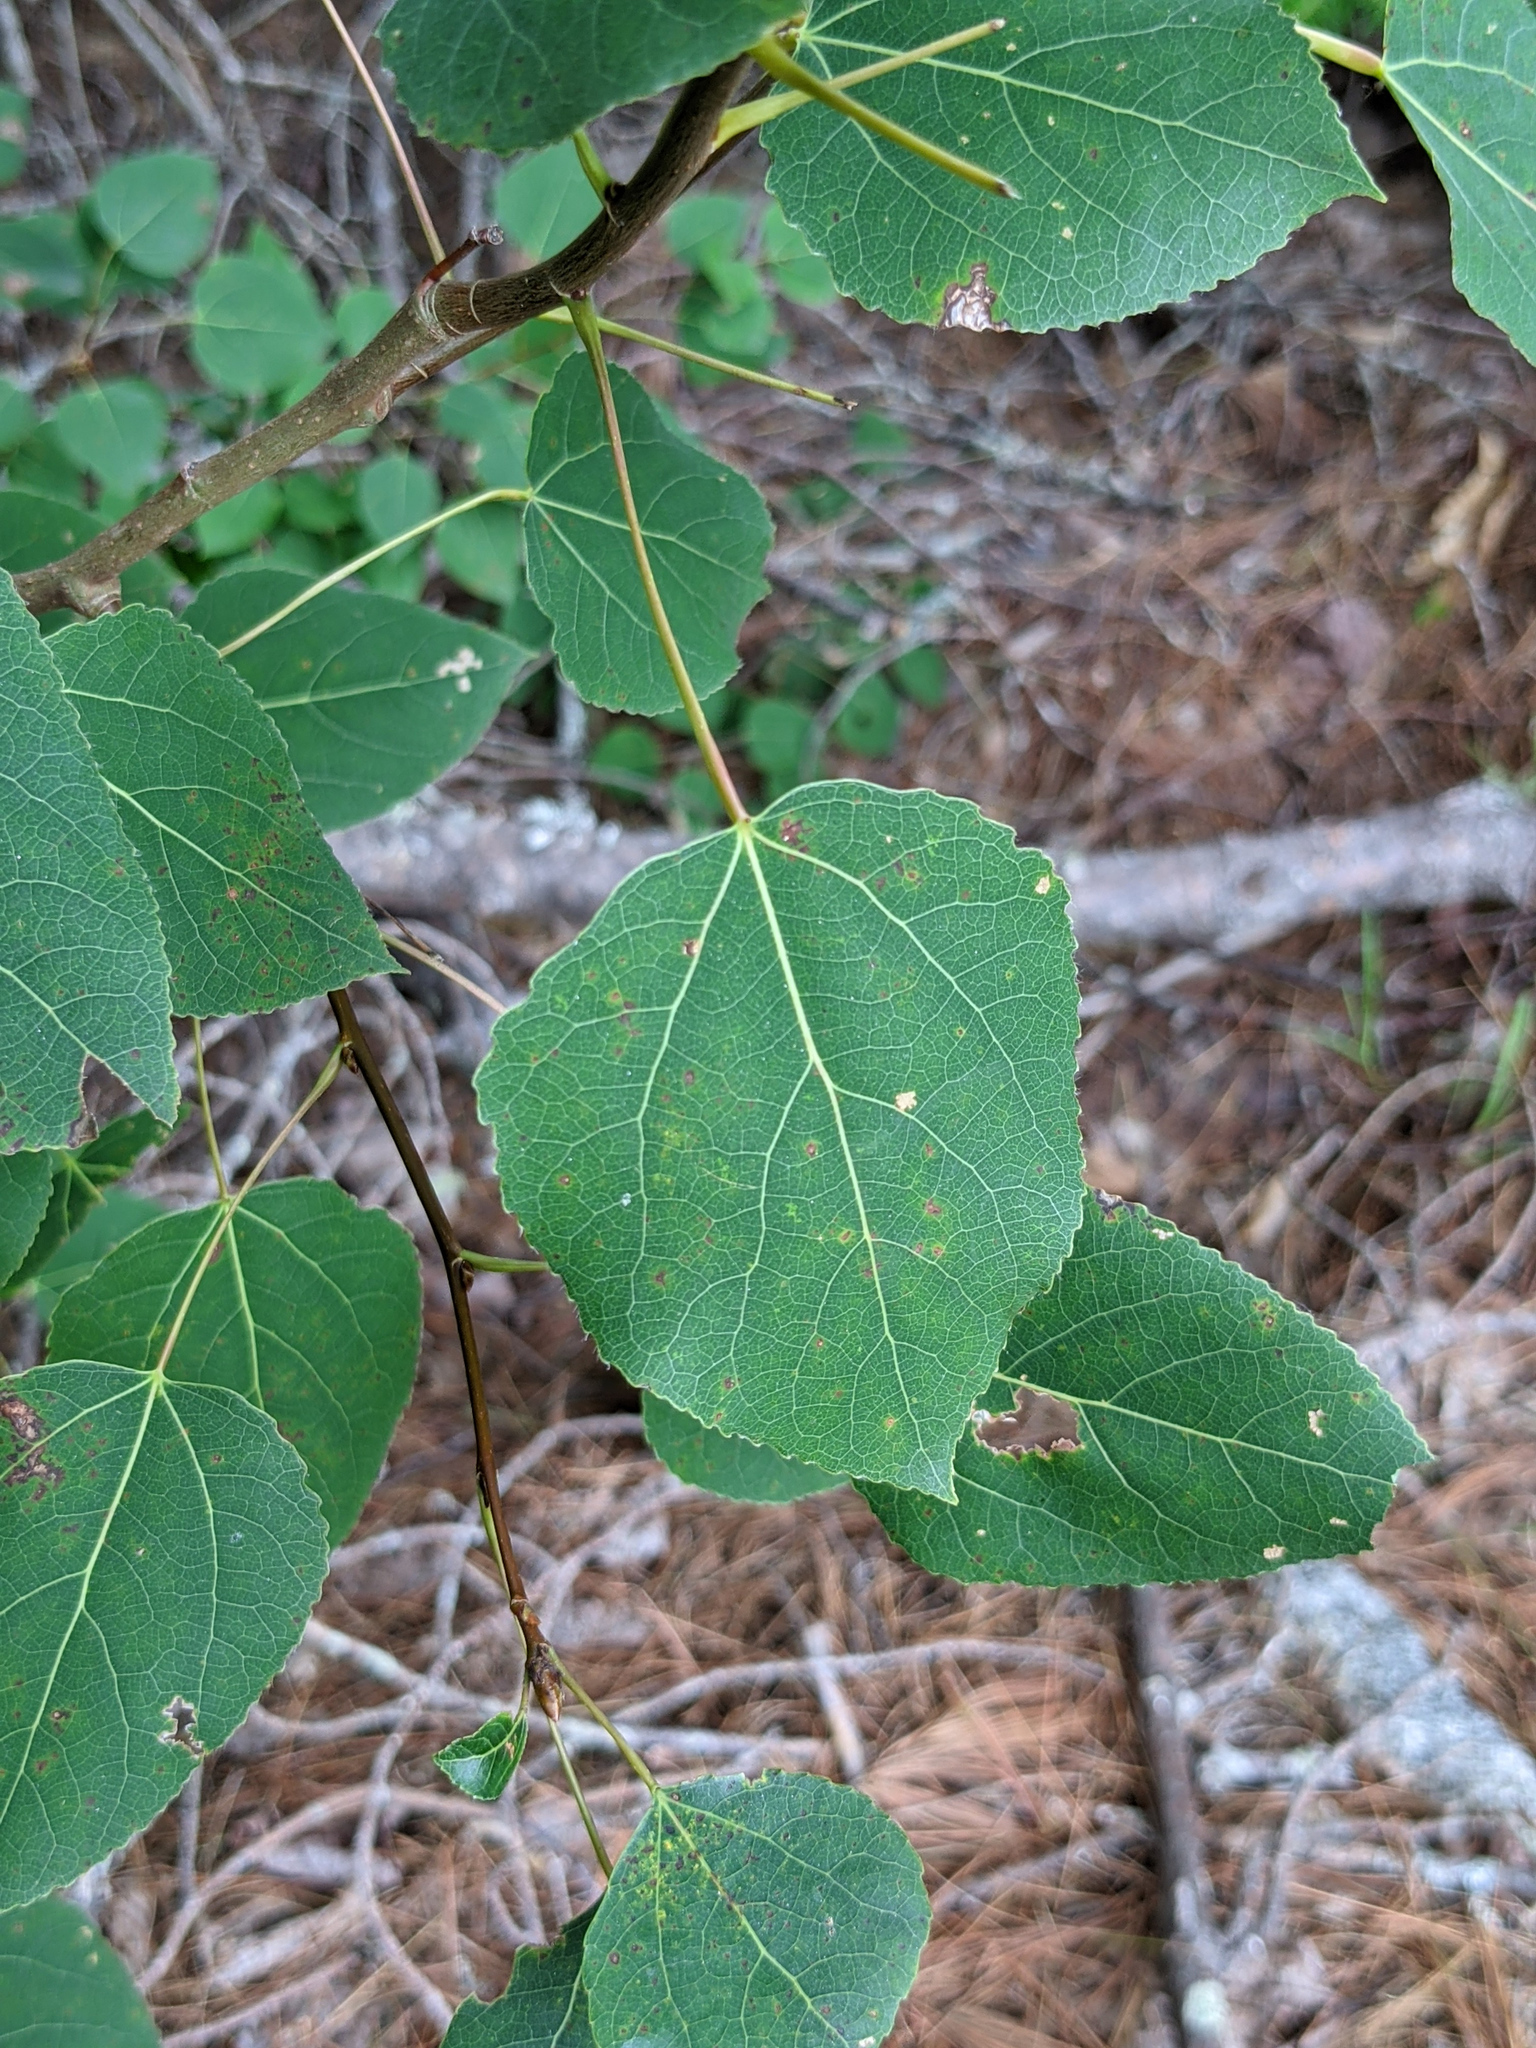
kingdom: Plantae
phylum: Tracheophyta
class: Magnoliopsida
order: Malpighiales
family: Salicaceae
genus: Populus
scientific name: Populus tremuloides
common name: Quaking aspen
